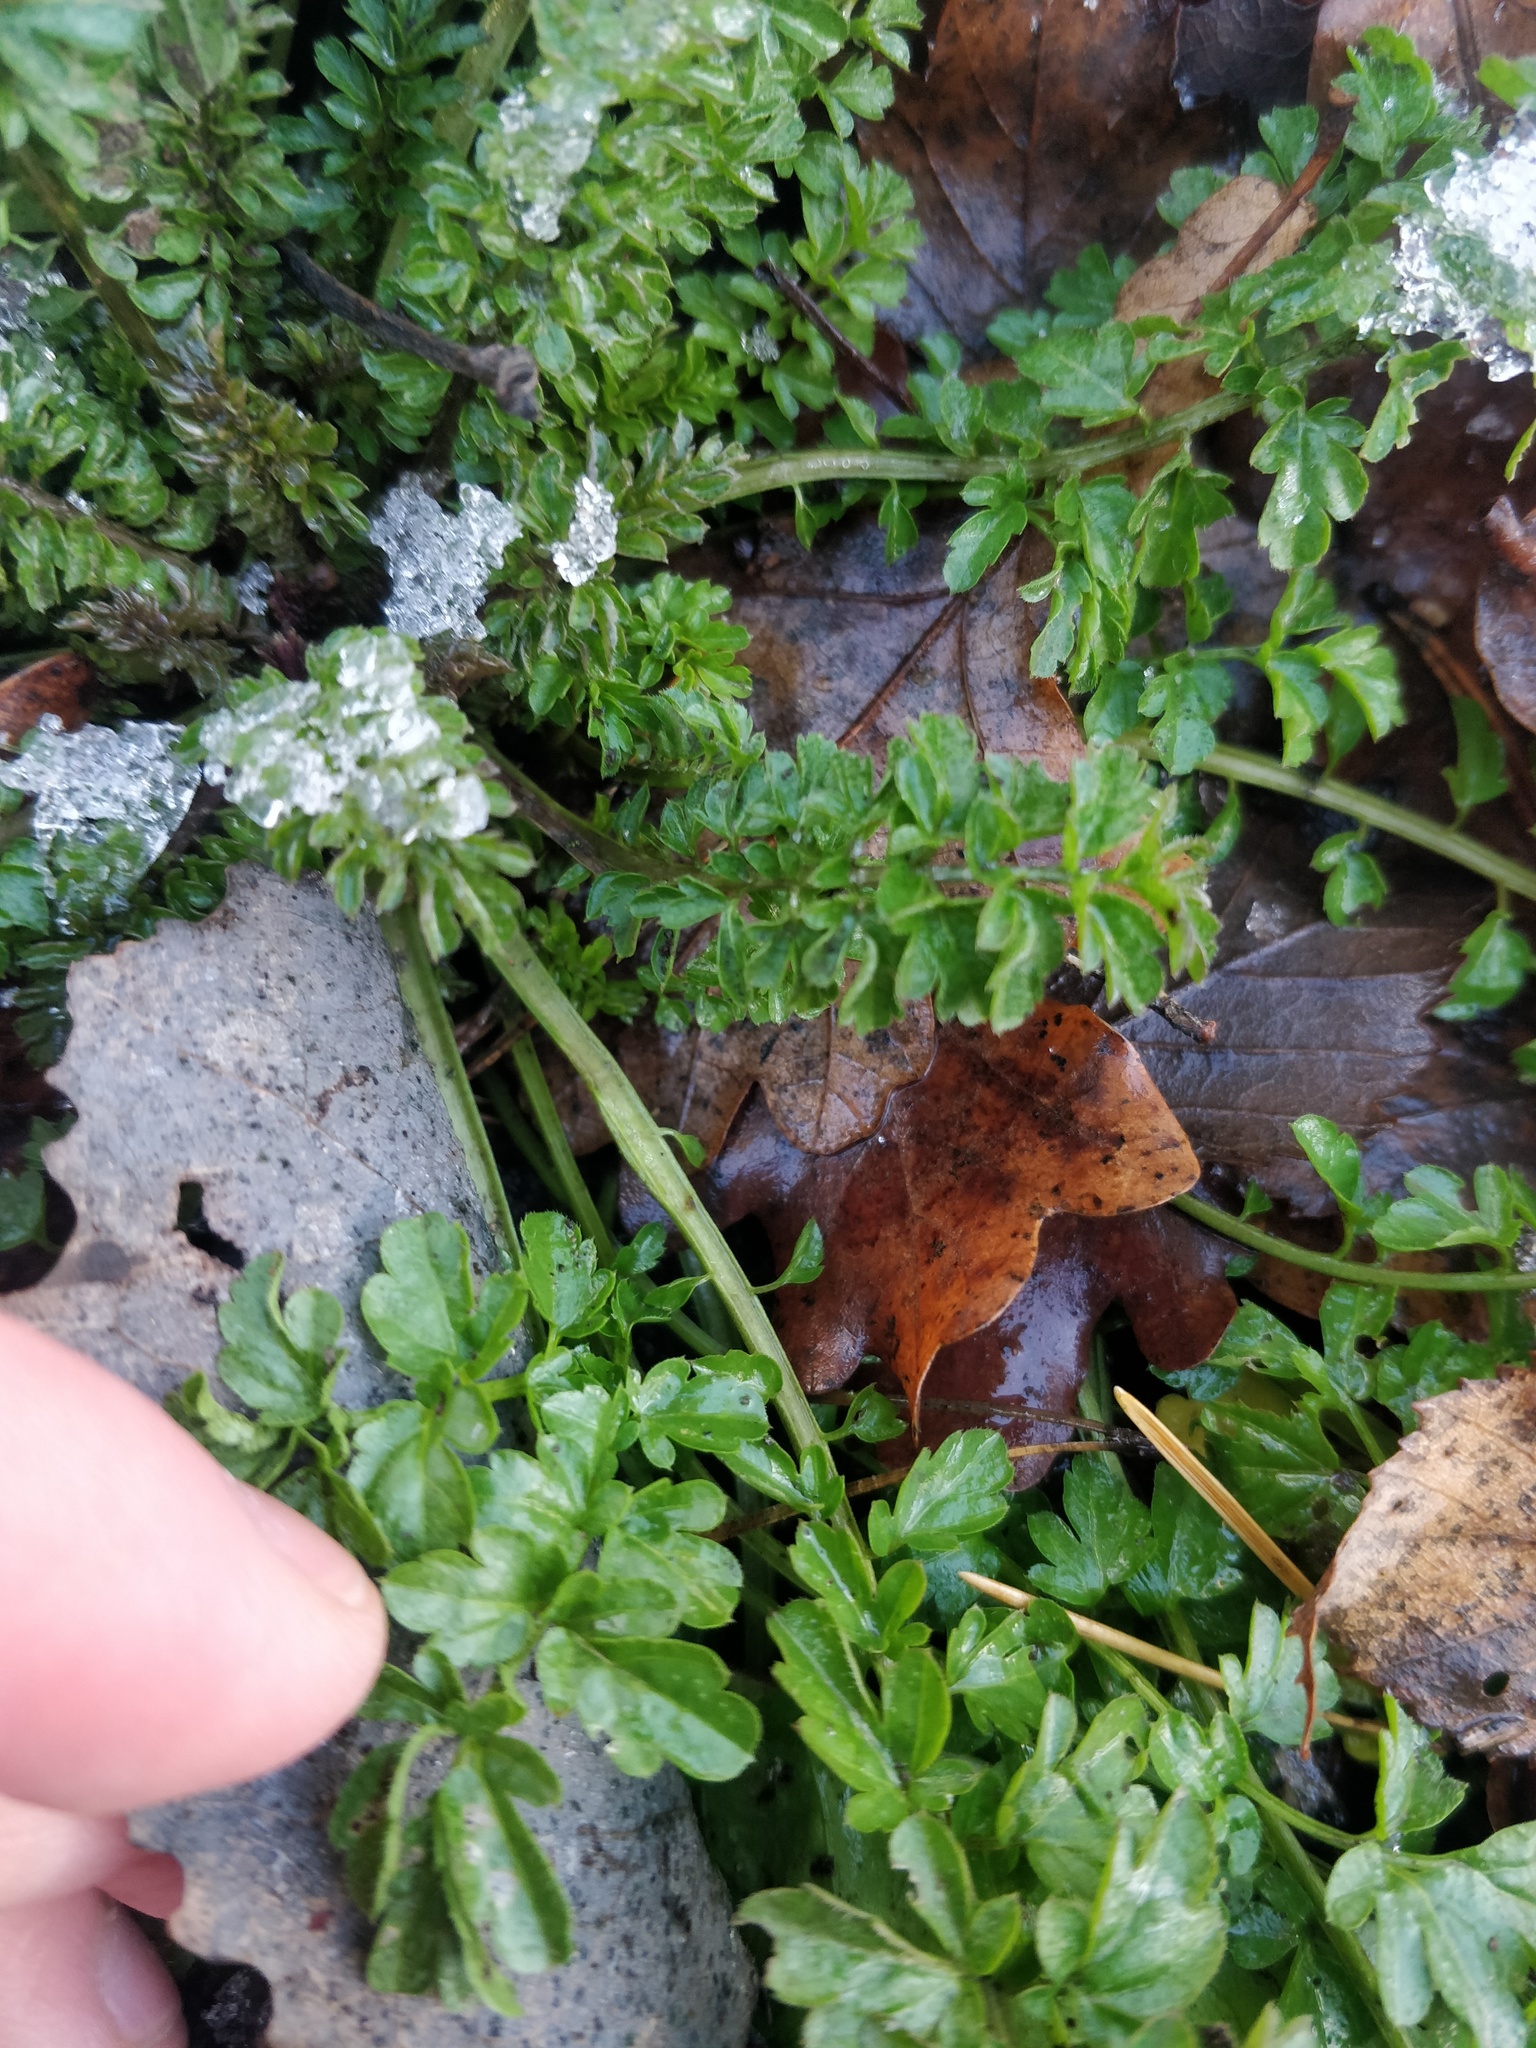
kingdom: Plantae
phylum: Tracheophyta
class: Magnoliopsida
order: Brassicales
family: Brassicaceae
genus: Cardamine
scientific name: Cardamine impatiens
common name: Narrow-leaved bitter-cress
